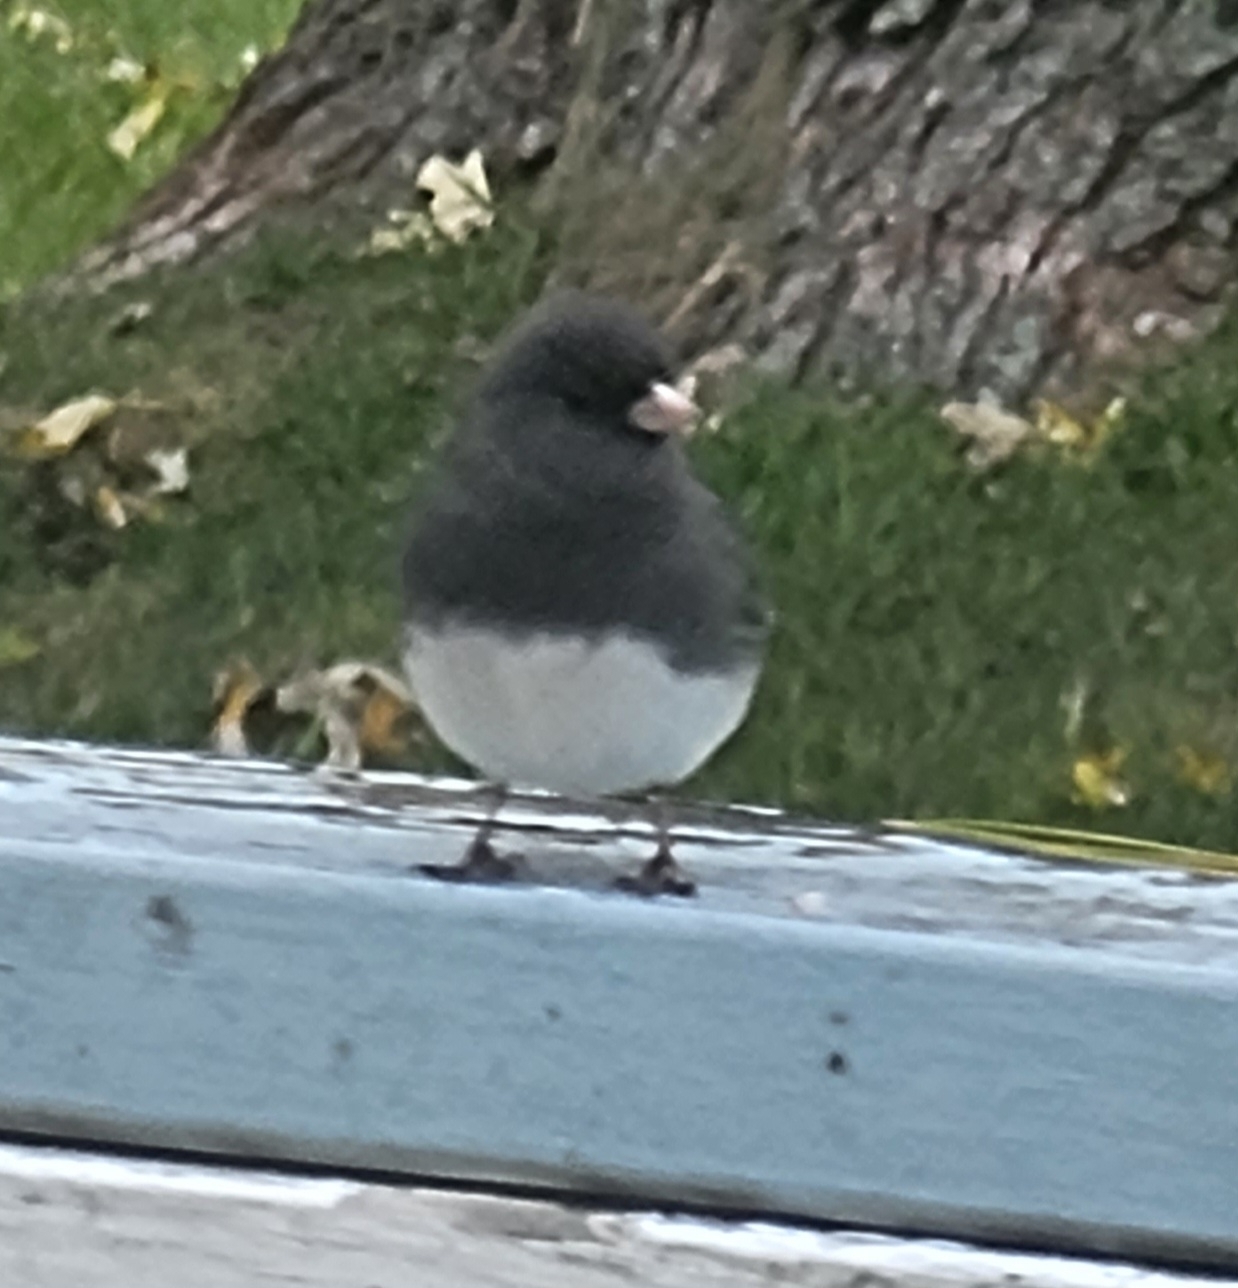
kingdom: Animalia
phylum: Chordata
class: Aves
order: Passeriformes
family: Passerellidae
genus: Junco
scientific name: Junco hyemalis
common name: Dark-eyed junco
